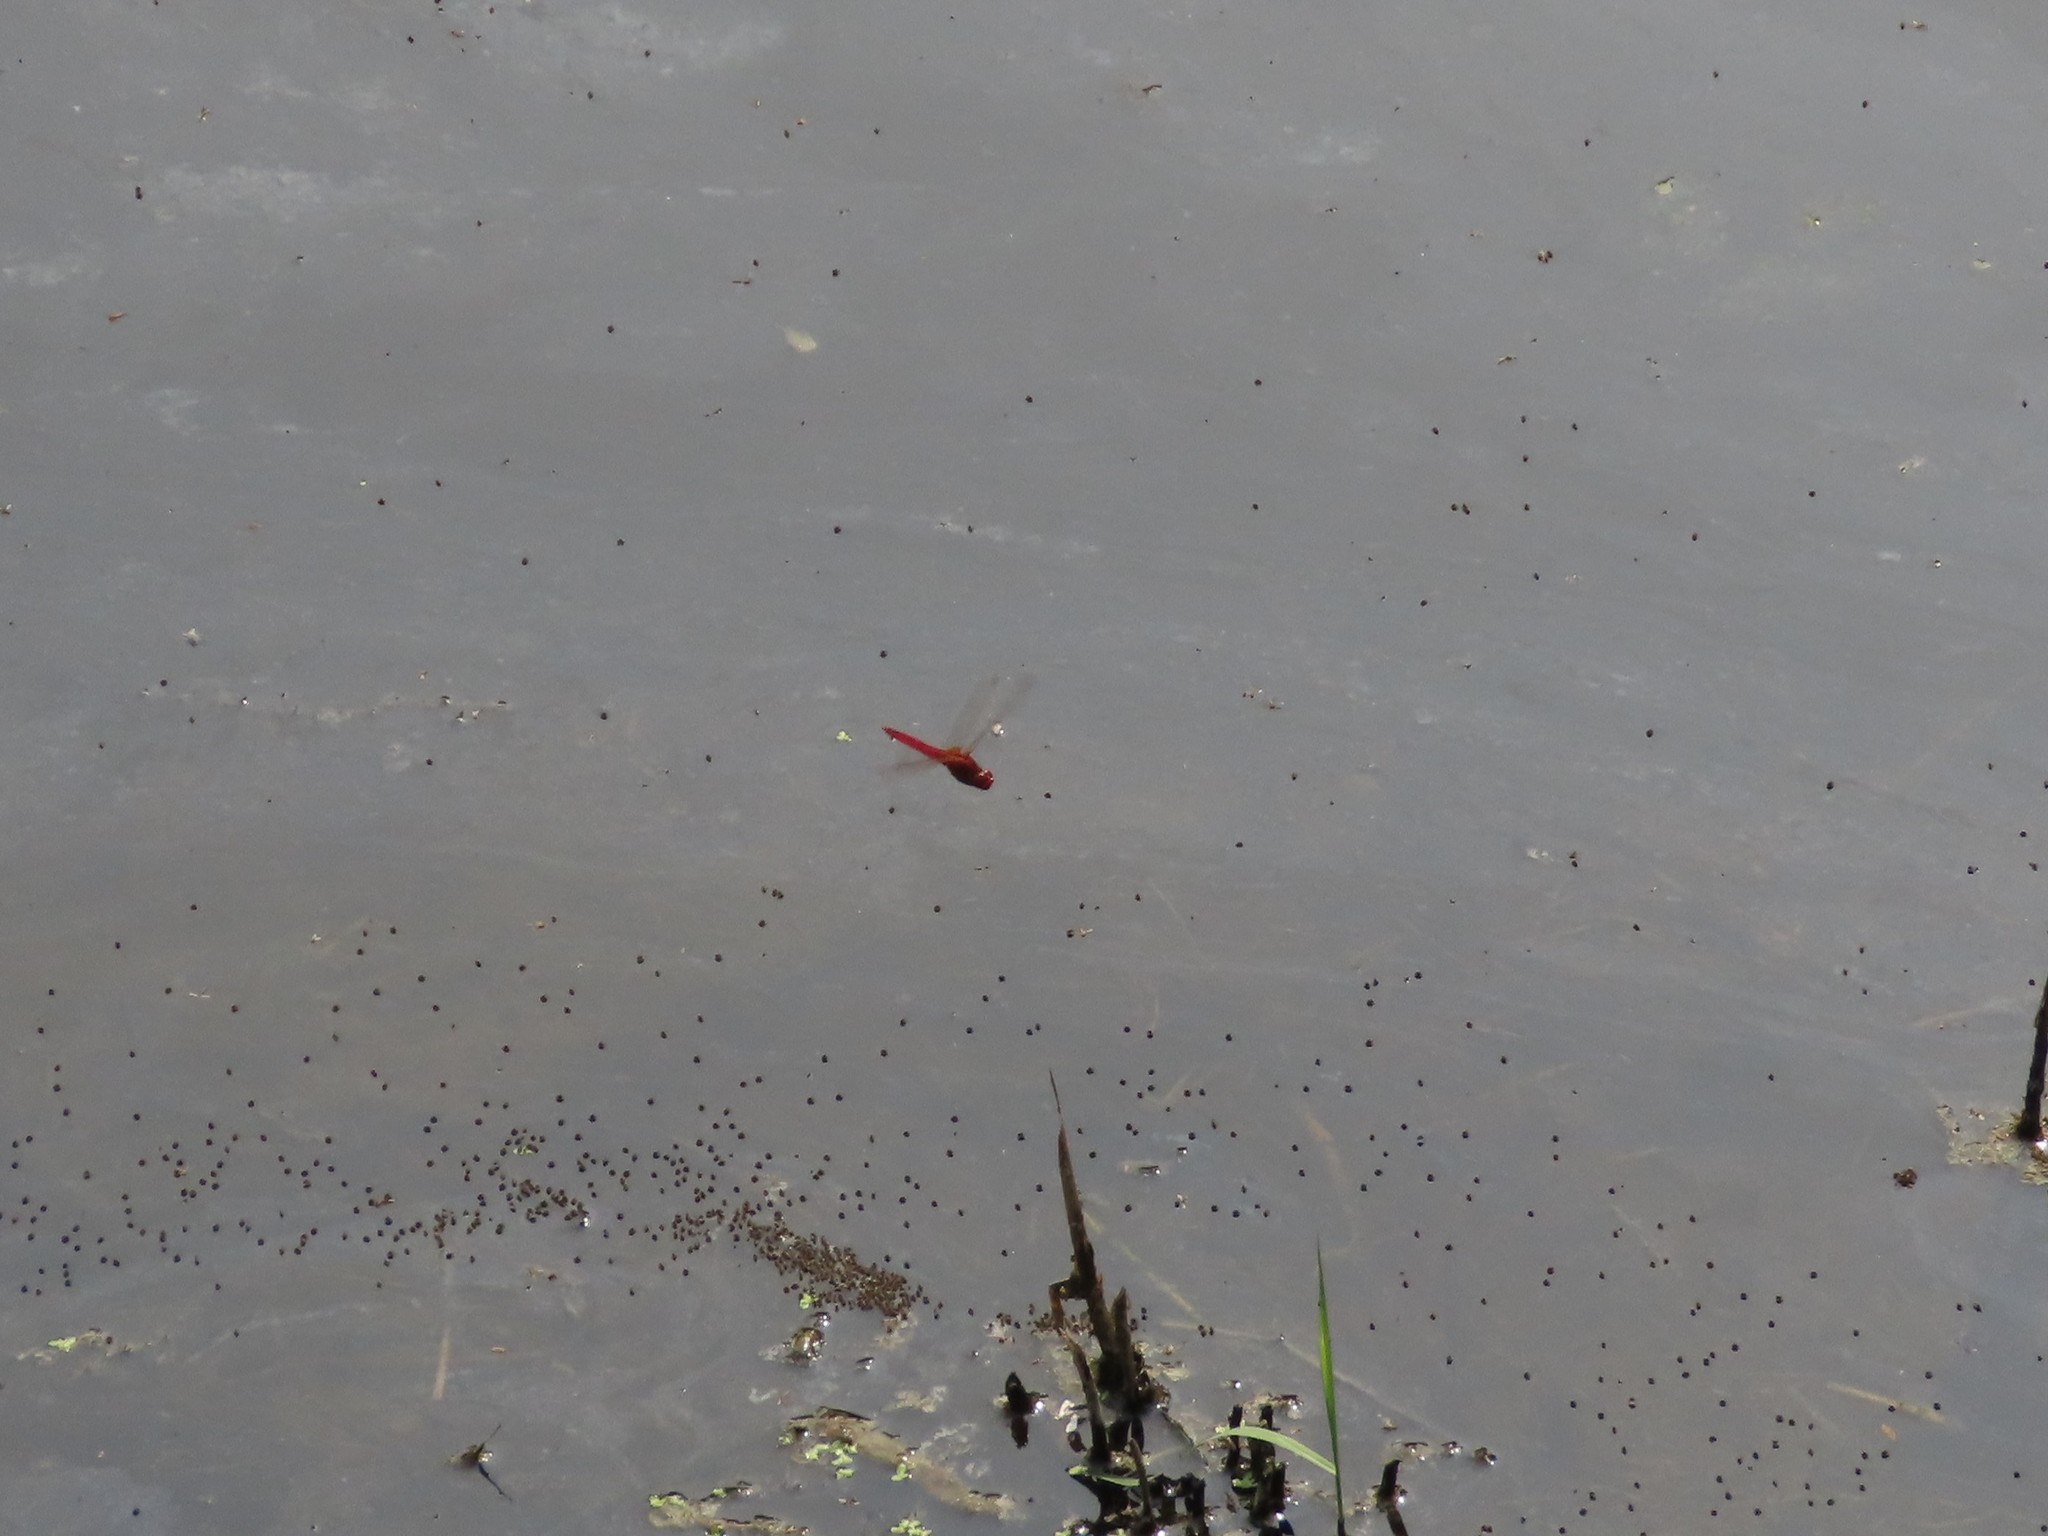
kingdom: Animalia
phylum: Arthropoda
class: Insecta
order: Odonata
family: Libellulidae
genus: Crocothemis
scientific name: Crocothemis servilia
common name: Scarlet skimmer
